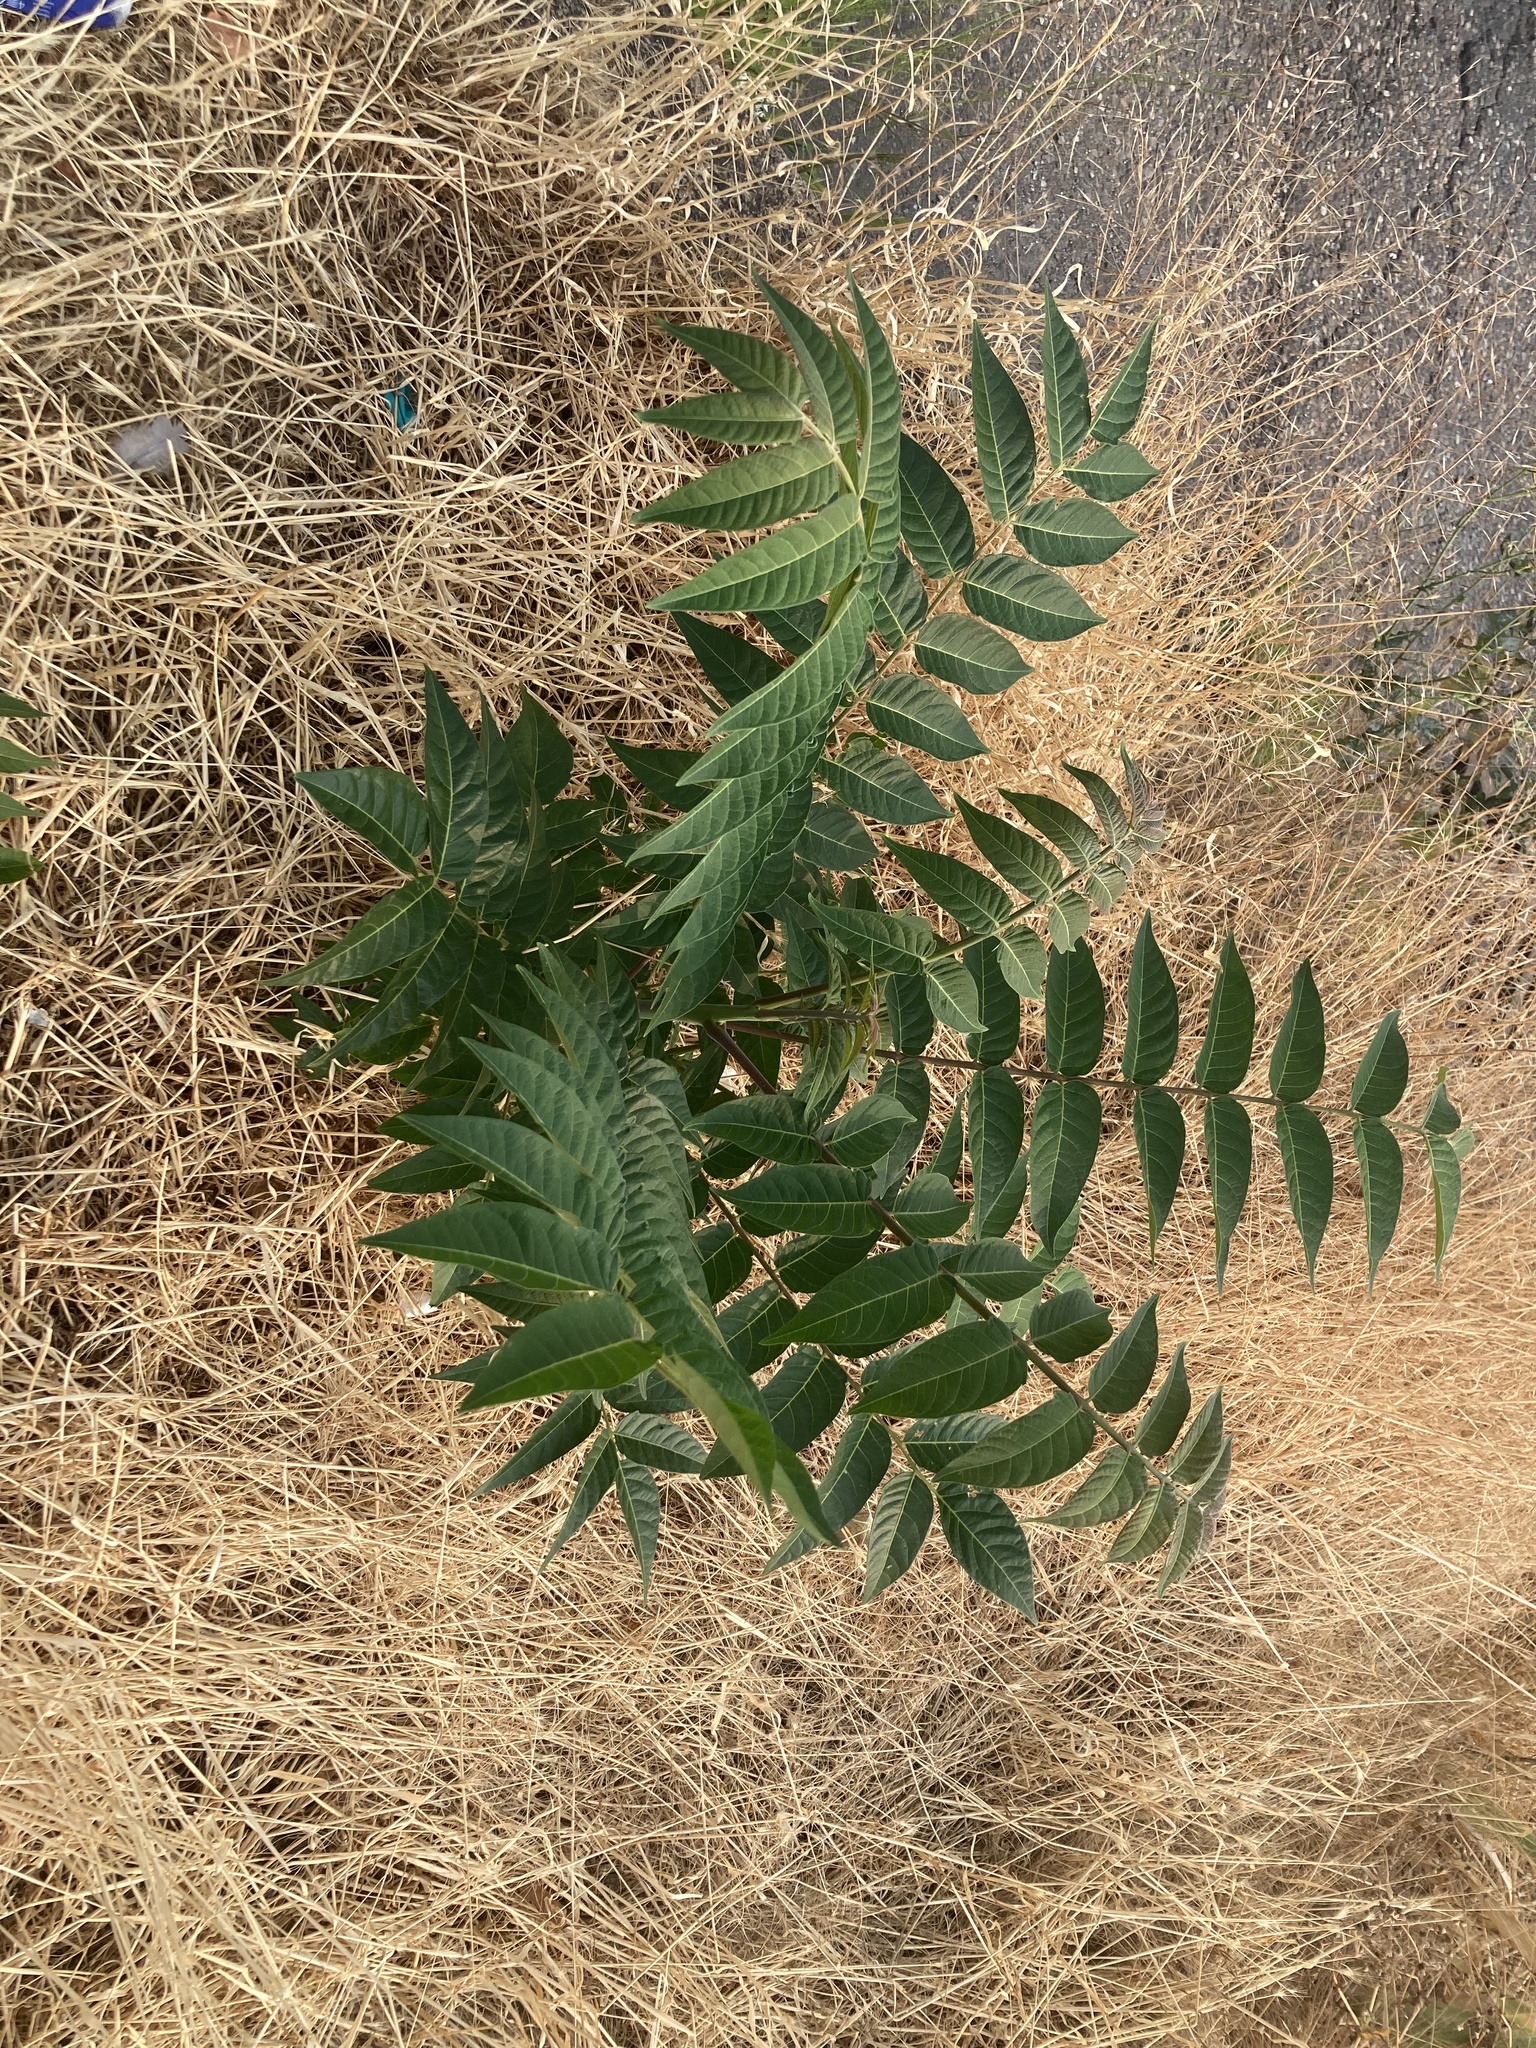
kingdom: Plantae
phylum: Tracheophyta
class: Magnoliopsida
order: Sapindales
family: Simaroubaceae
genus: Ailanthus
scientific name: Ailanthus altissima
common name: Tree-of-heaven
